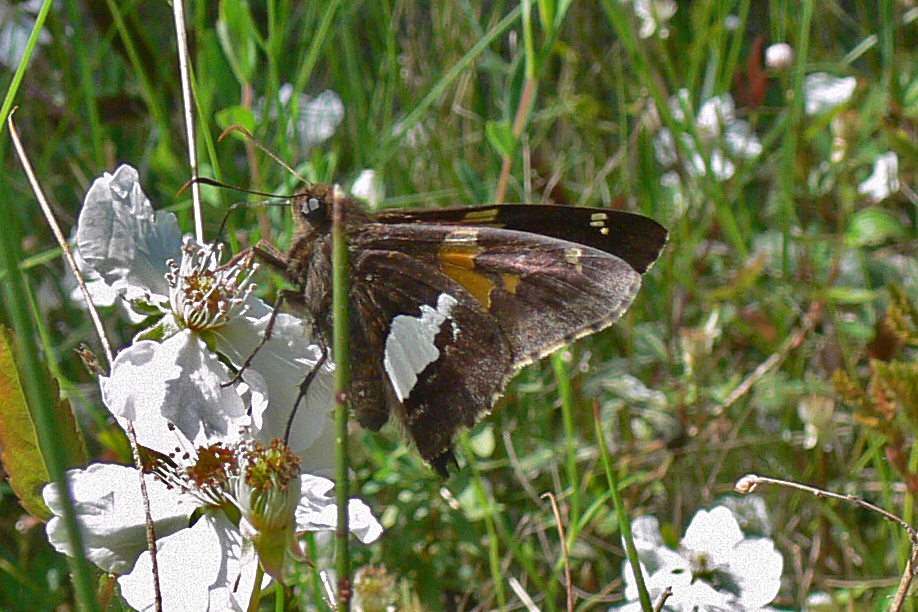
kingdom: Animalia
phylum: Arthropoda
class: Insecta
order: Lepidoptera
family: Hesperiidae
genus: Epargyreus
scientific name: Epargyreus clarus
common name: Silver-spotted skipper
